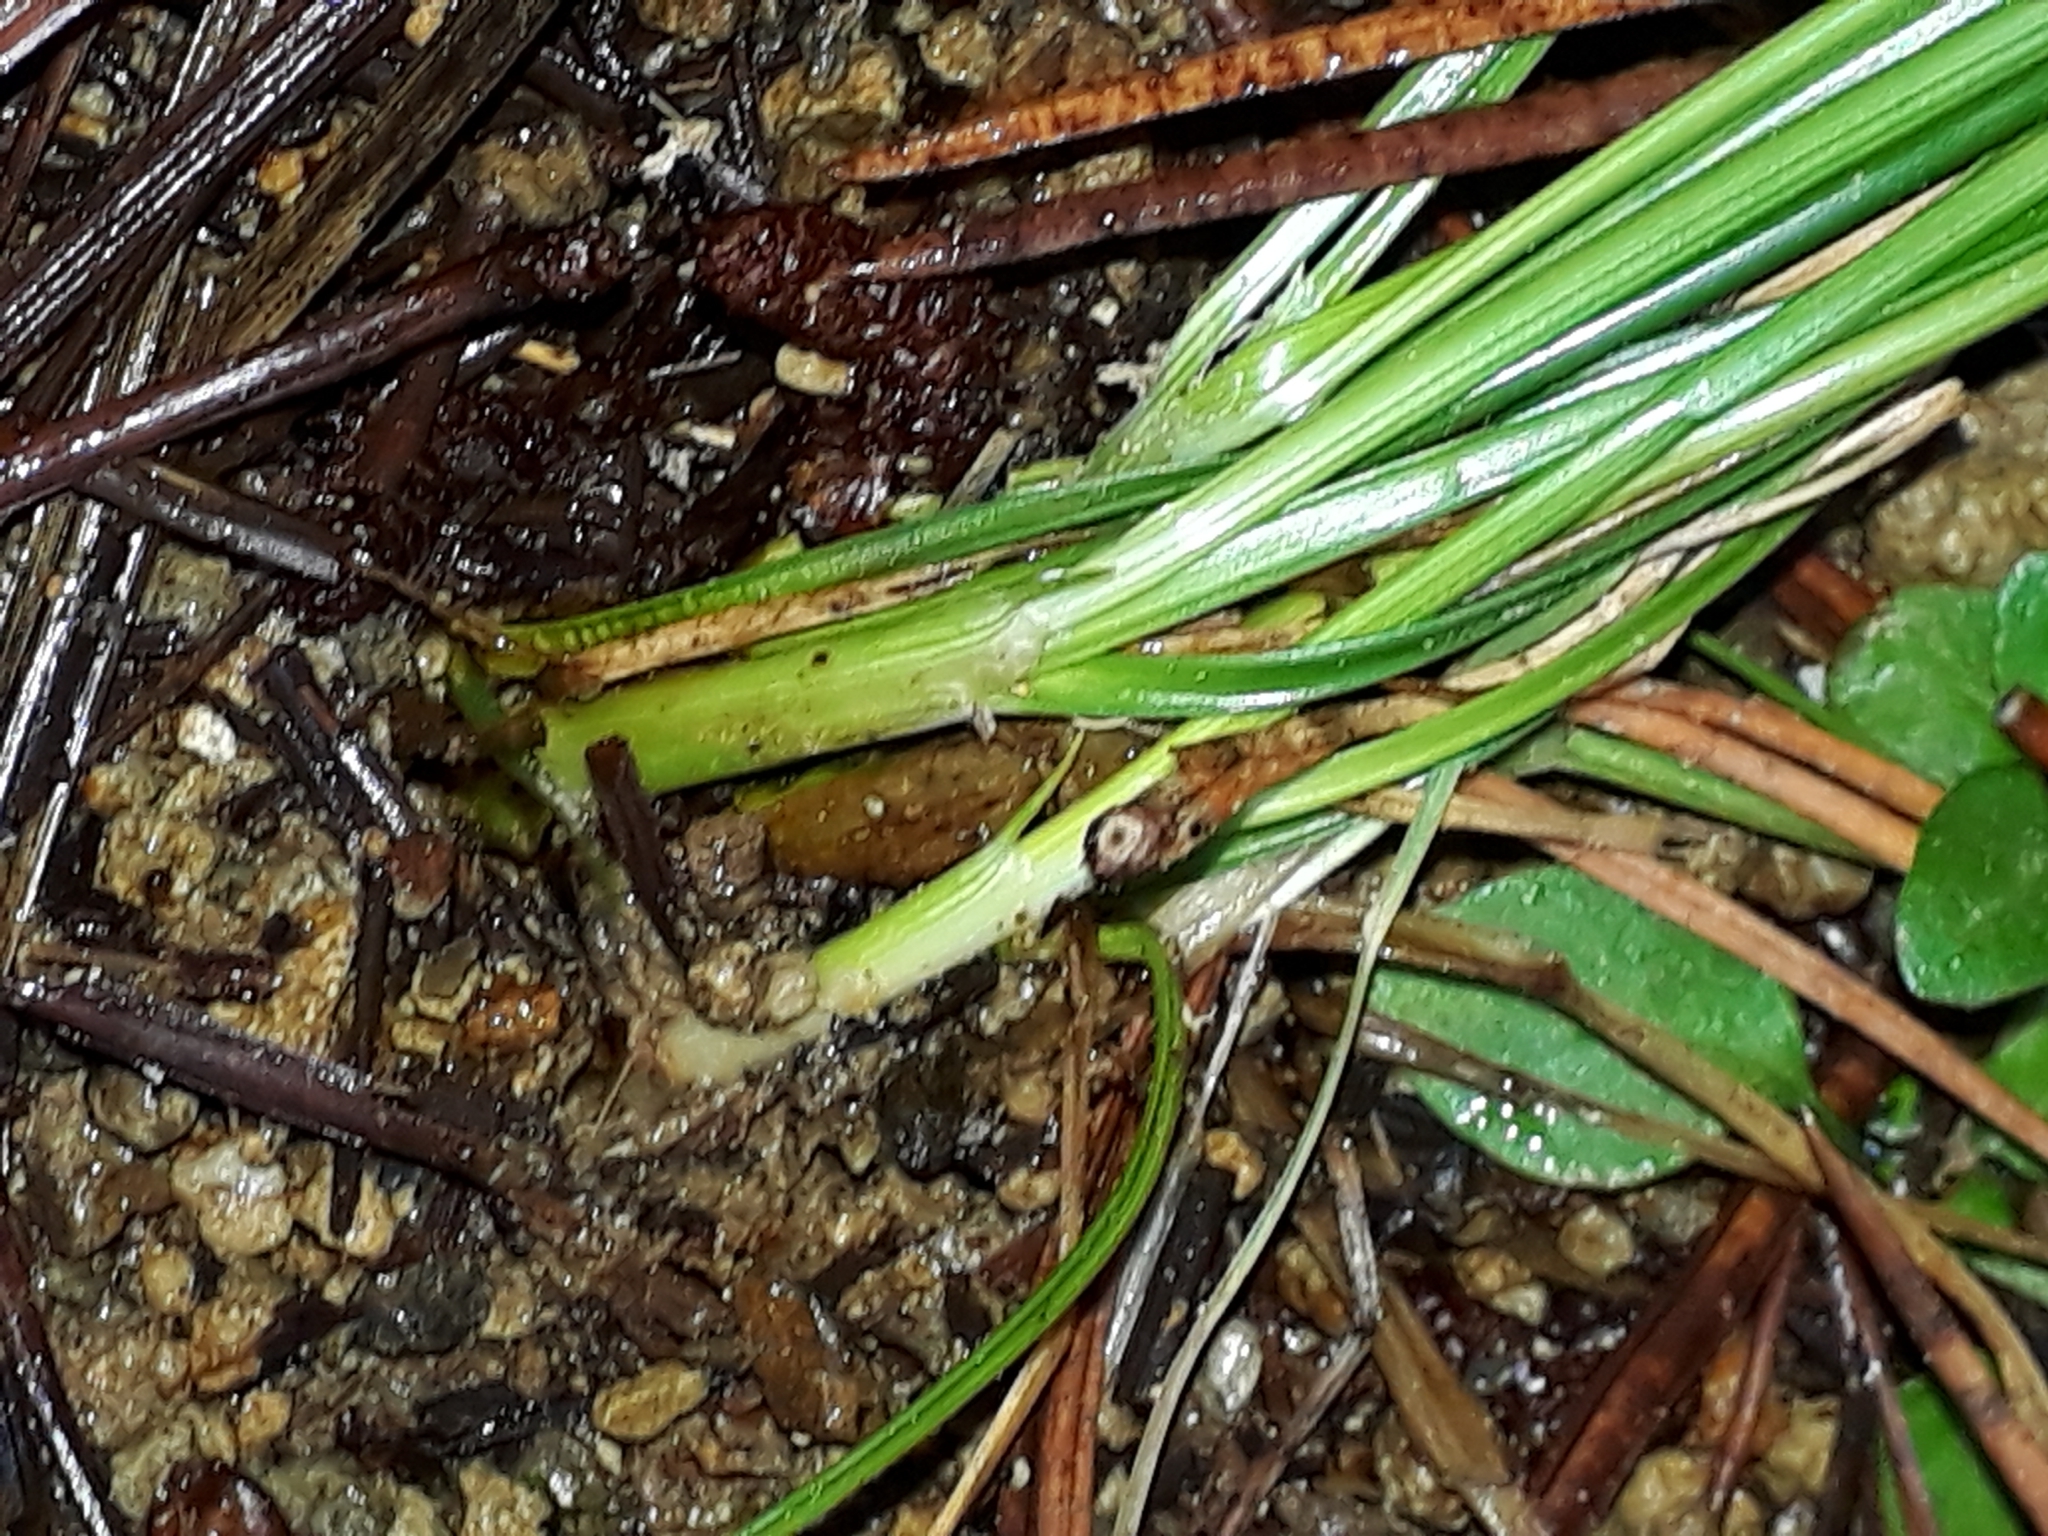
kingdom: Plantae
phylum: Tracheophyta
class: Liliopsida
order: Poales
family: Juncaceae
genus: Juncus
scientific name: Juncus dichotomus
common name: Forked rush
